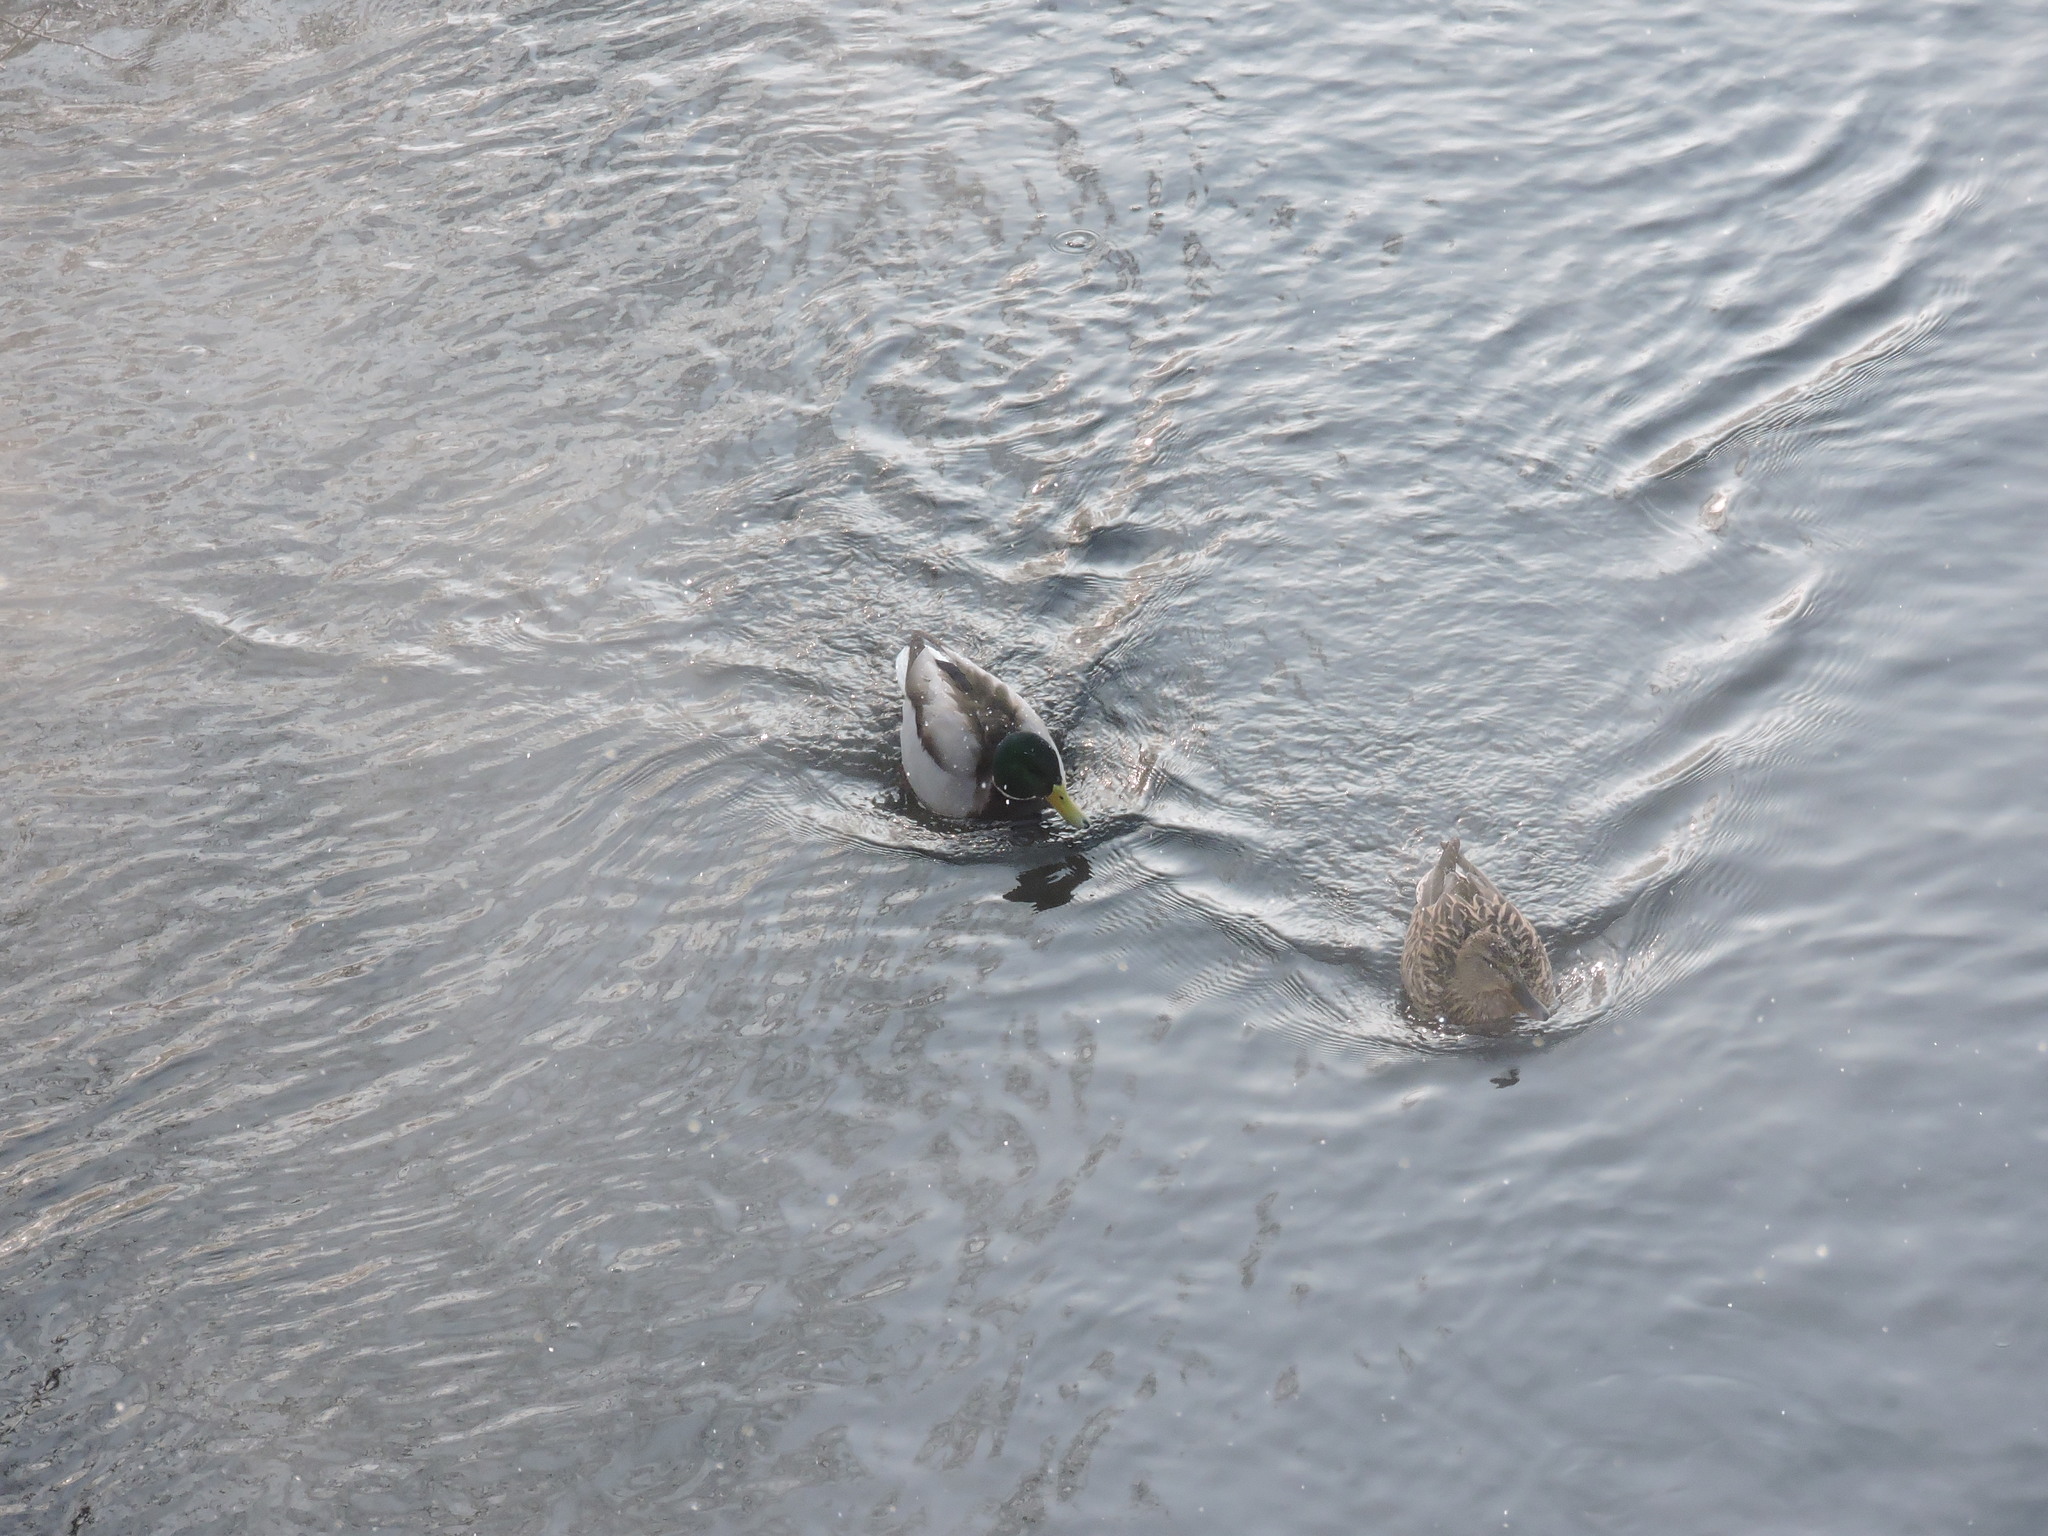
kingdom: Animalia
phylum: Chordata
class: Aves
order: Anseriformes
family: Anatidae
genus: Anas
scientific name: Anas platyrhynchos
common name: Mallard
